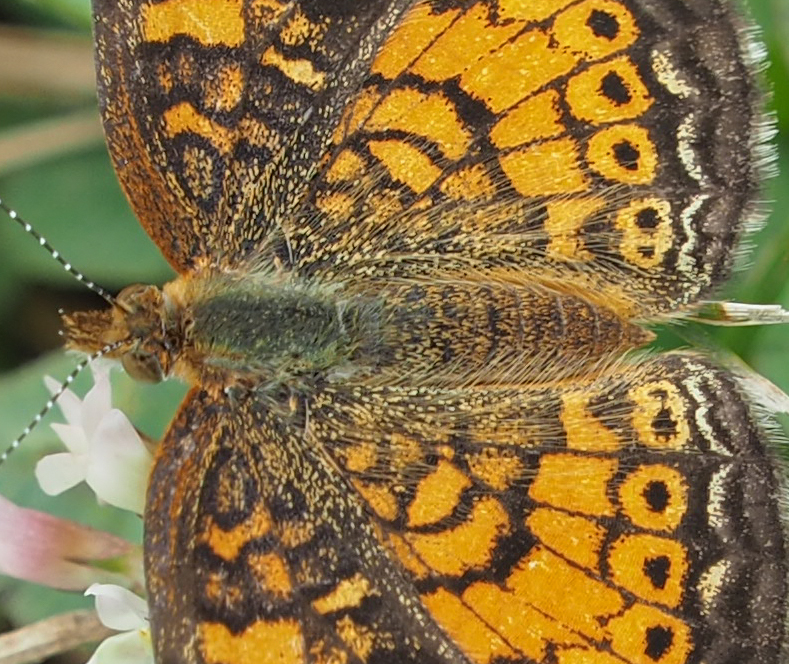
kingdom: Animalia
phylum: Arthropoda
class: Insecta
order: Lepidoptera
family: Nymphalidae
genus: Phyciodes
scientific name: Phyciodes tharos
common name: Pearl crescent
